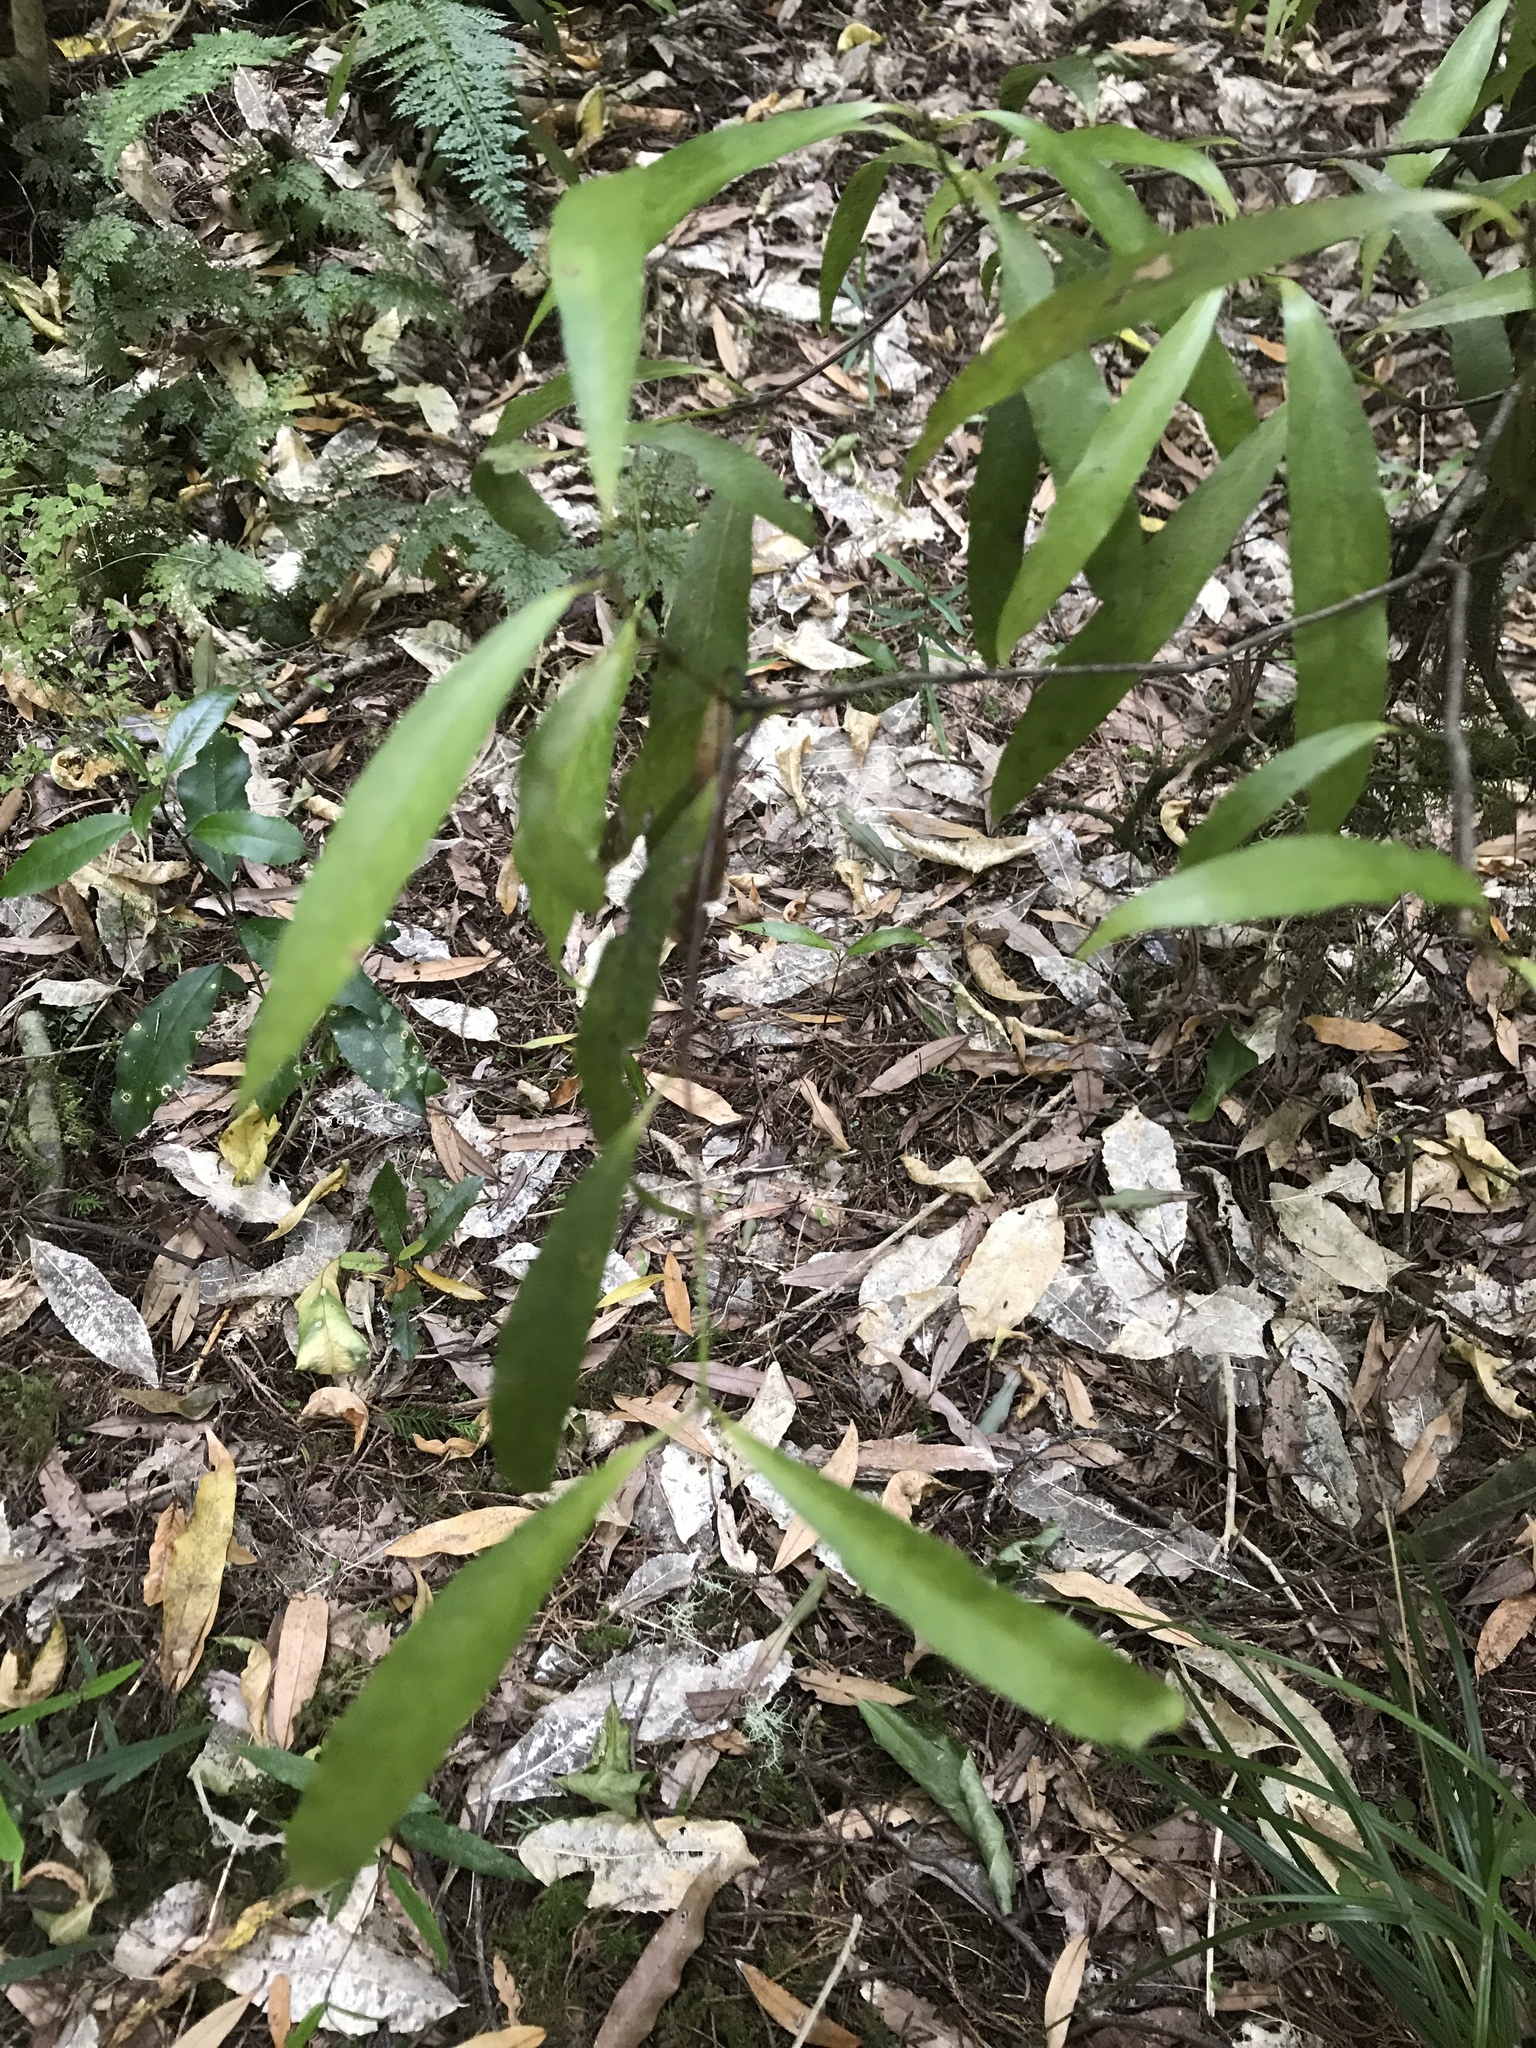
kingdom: Plantae
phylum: Tracheophyta
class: Magnoliopsida
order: Laurales
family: Lauraceae
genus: Beilschmiedia
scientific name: Beilschmiedia tawa
